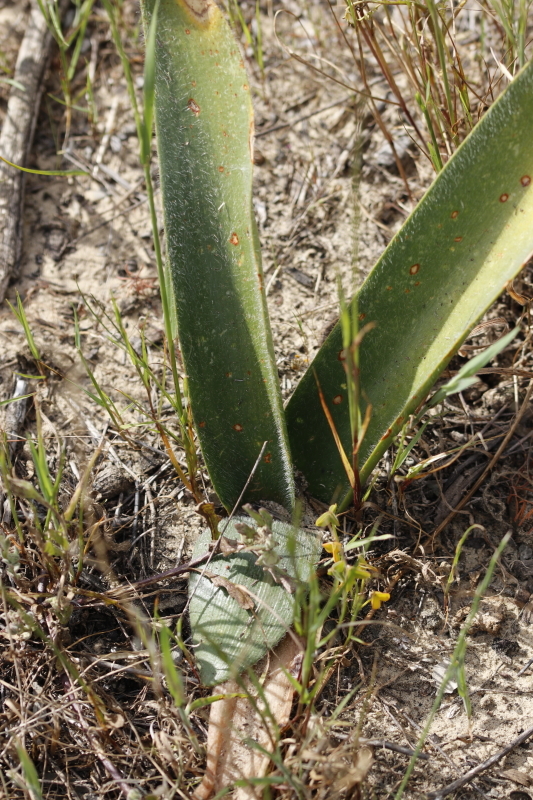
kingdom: Plantae
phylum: Tracheophyta
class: Liliopsida
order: Asparagales
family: Amaryllidaceae
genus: Haemanthus
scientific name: Haemanthus pubescens
